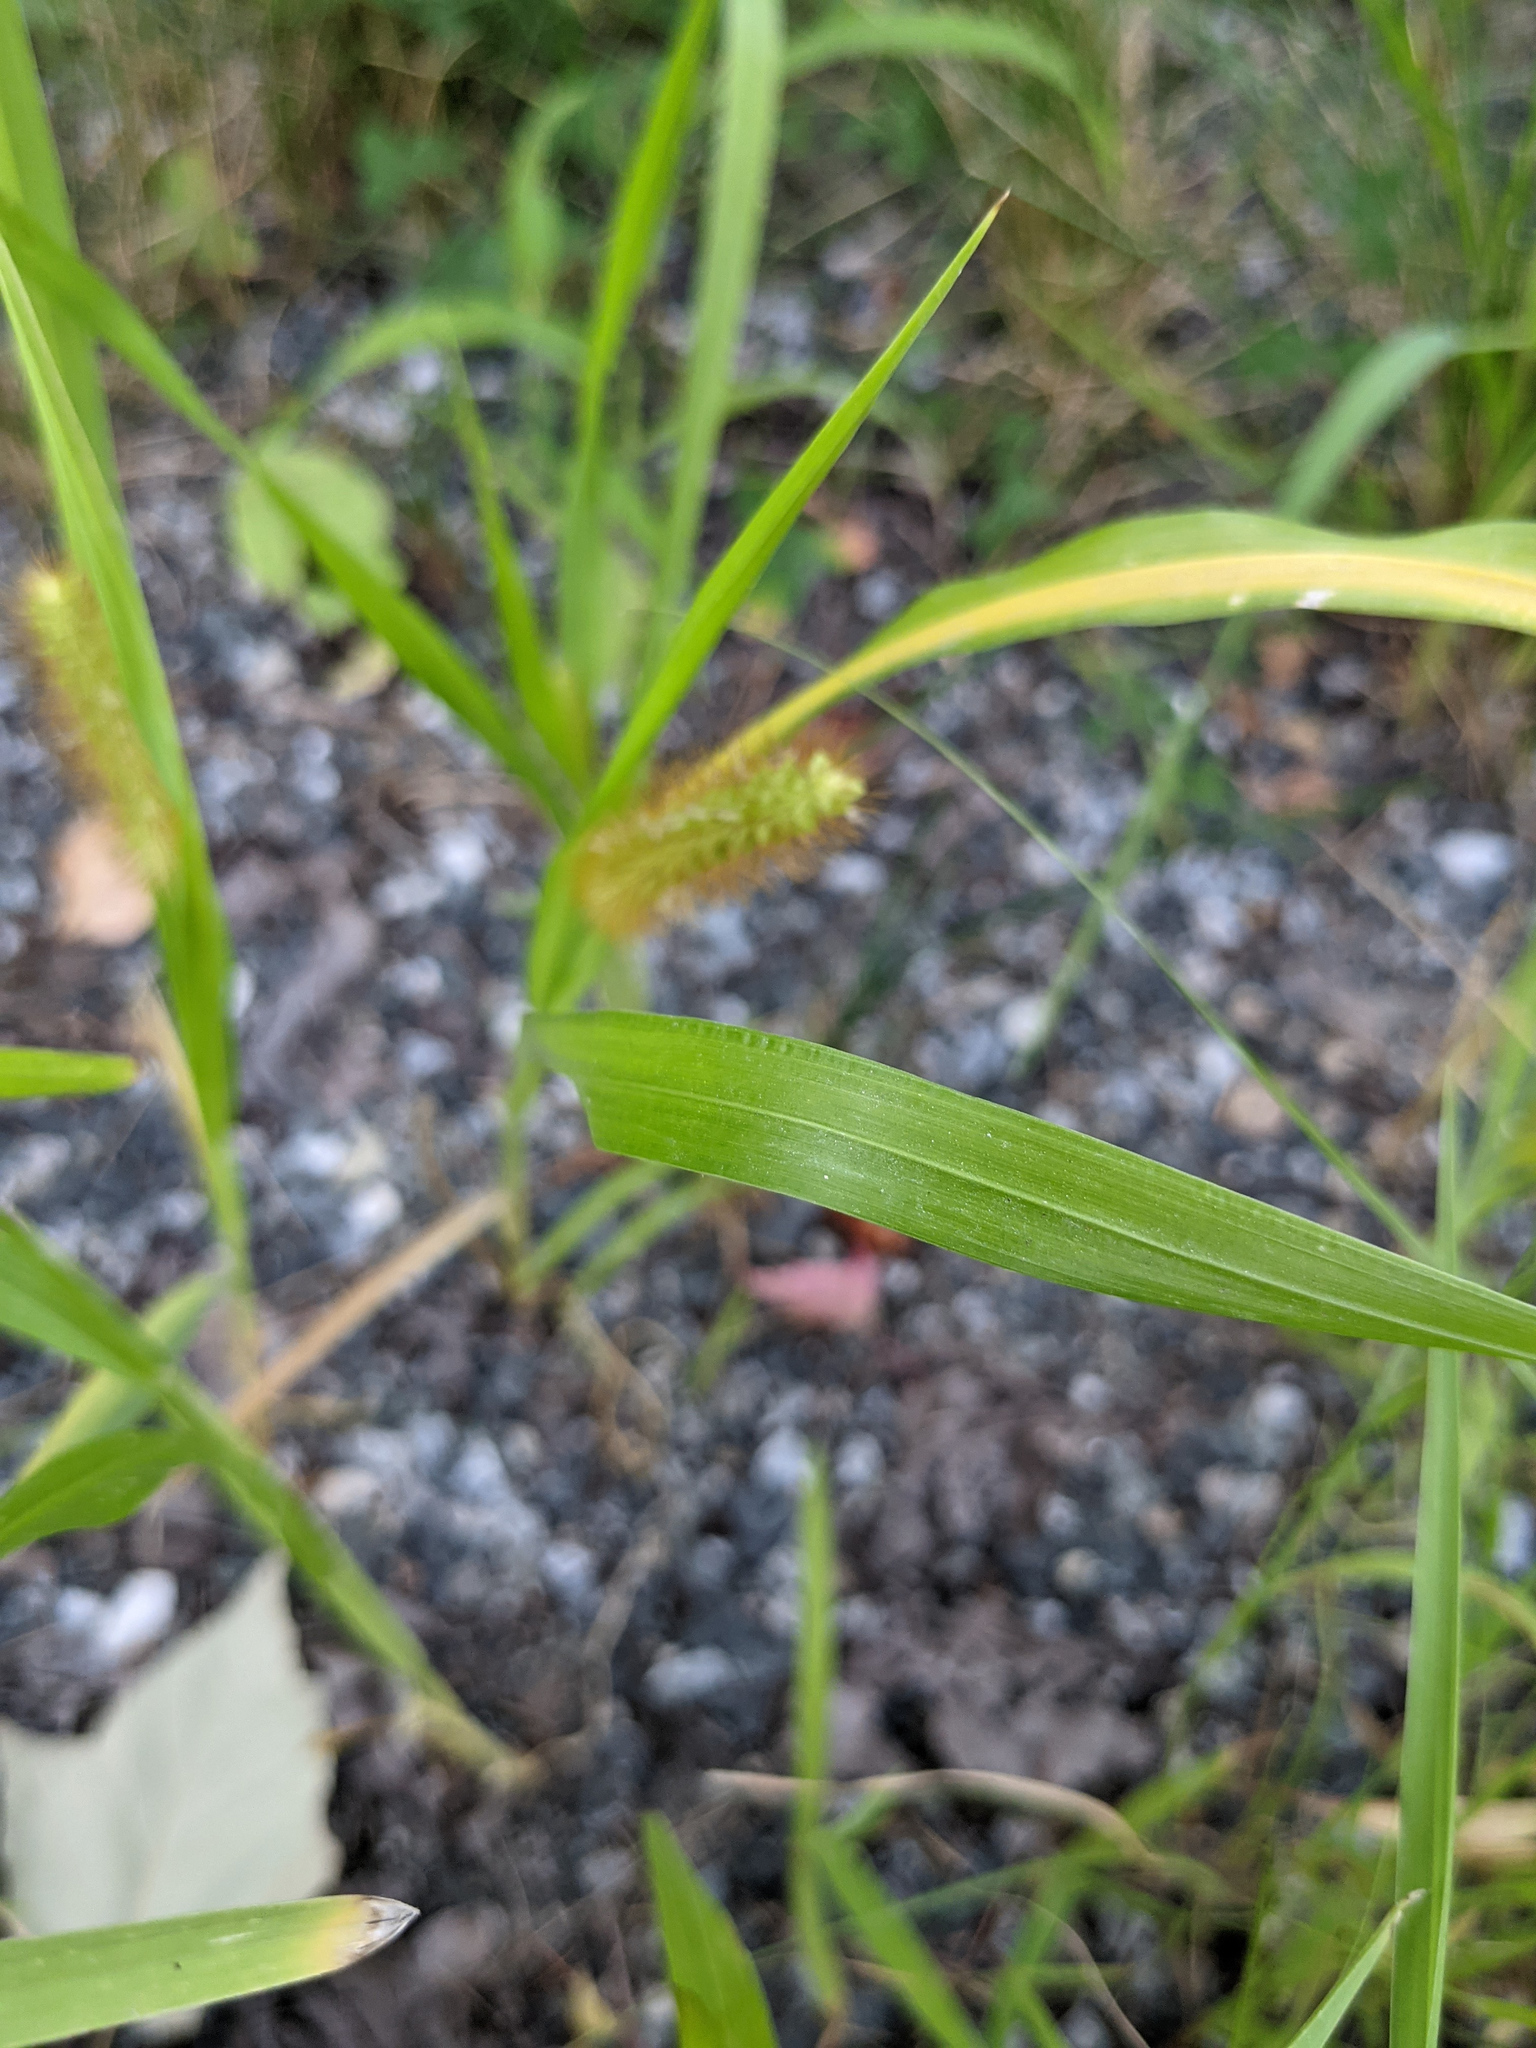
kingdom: Plantae
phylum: Tracheophyta
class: Liliopsida
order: Poales
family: Poaceae
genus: Setaria
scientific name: Setaria pumila
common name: Yellow bristle-grass
